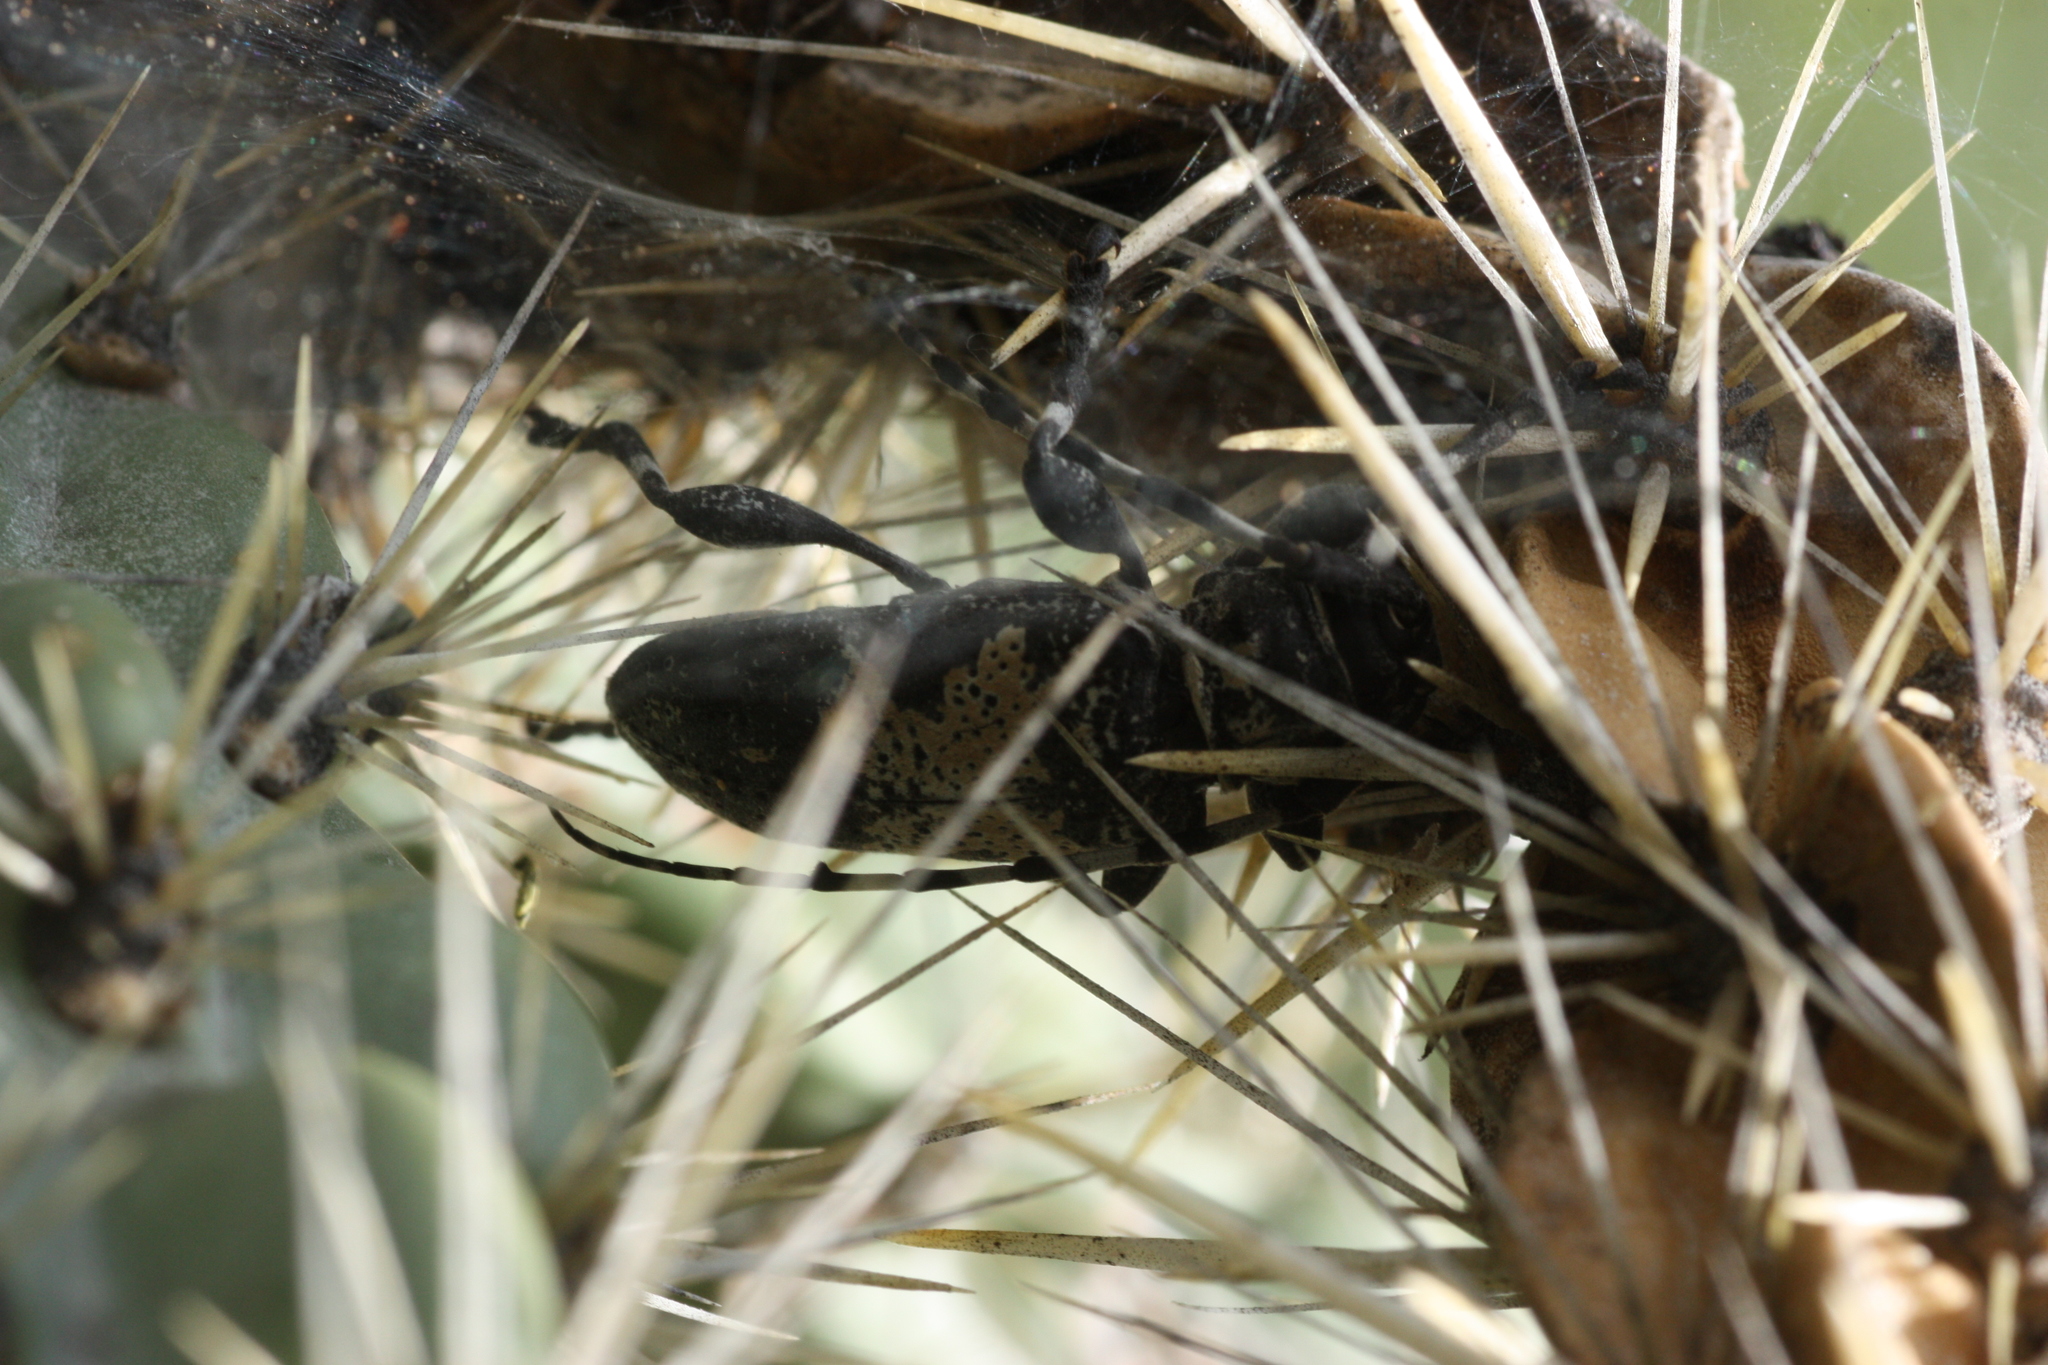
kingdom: Animalia
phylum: Arthropoda
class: Insecta
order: Coleoptera
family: Cerambycidae
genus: Coenopoeus
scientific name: Coenopoeus palmeri
